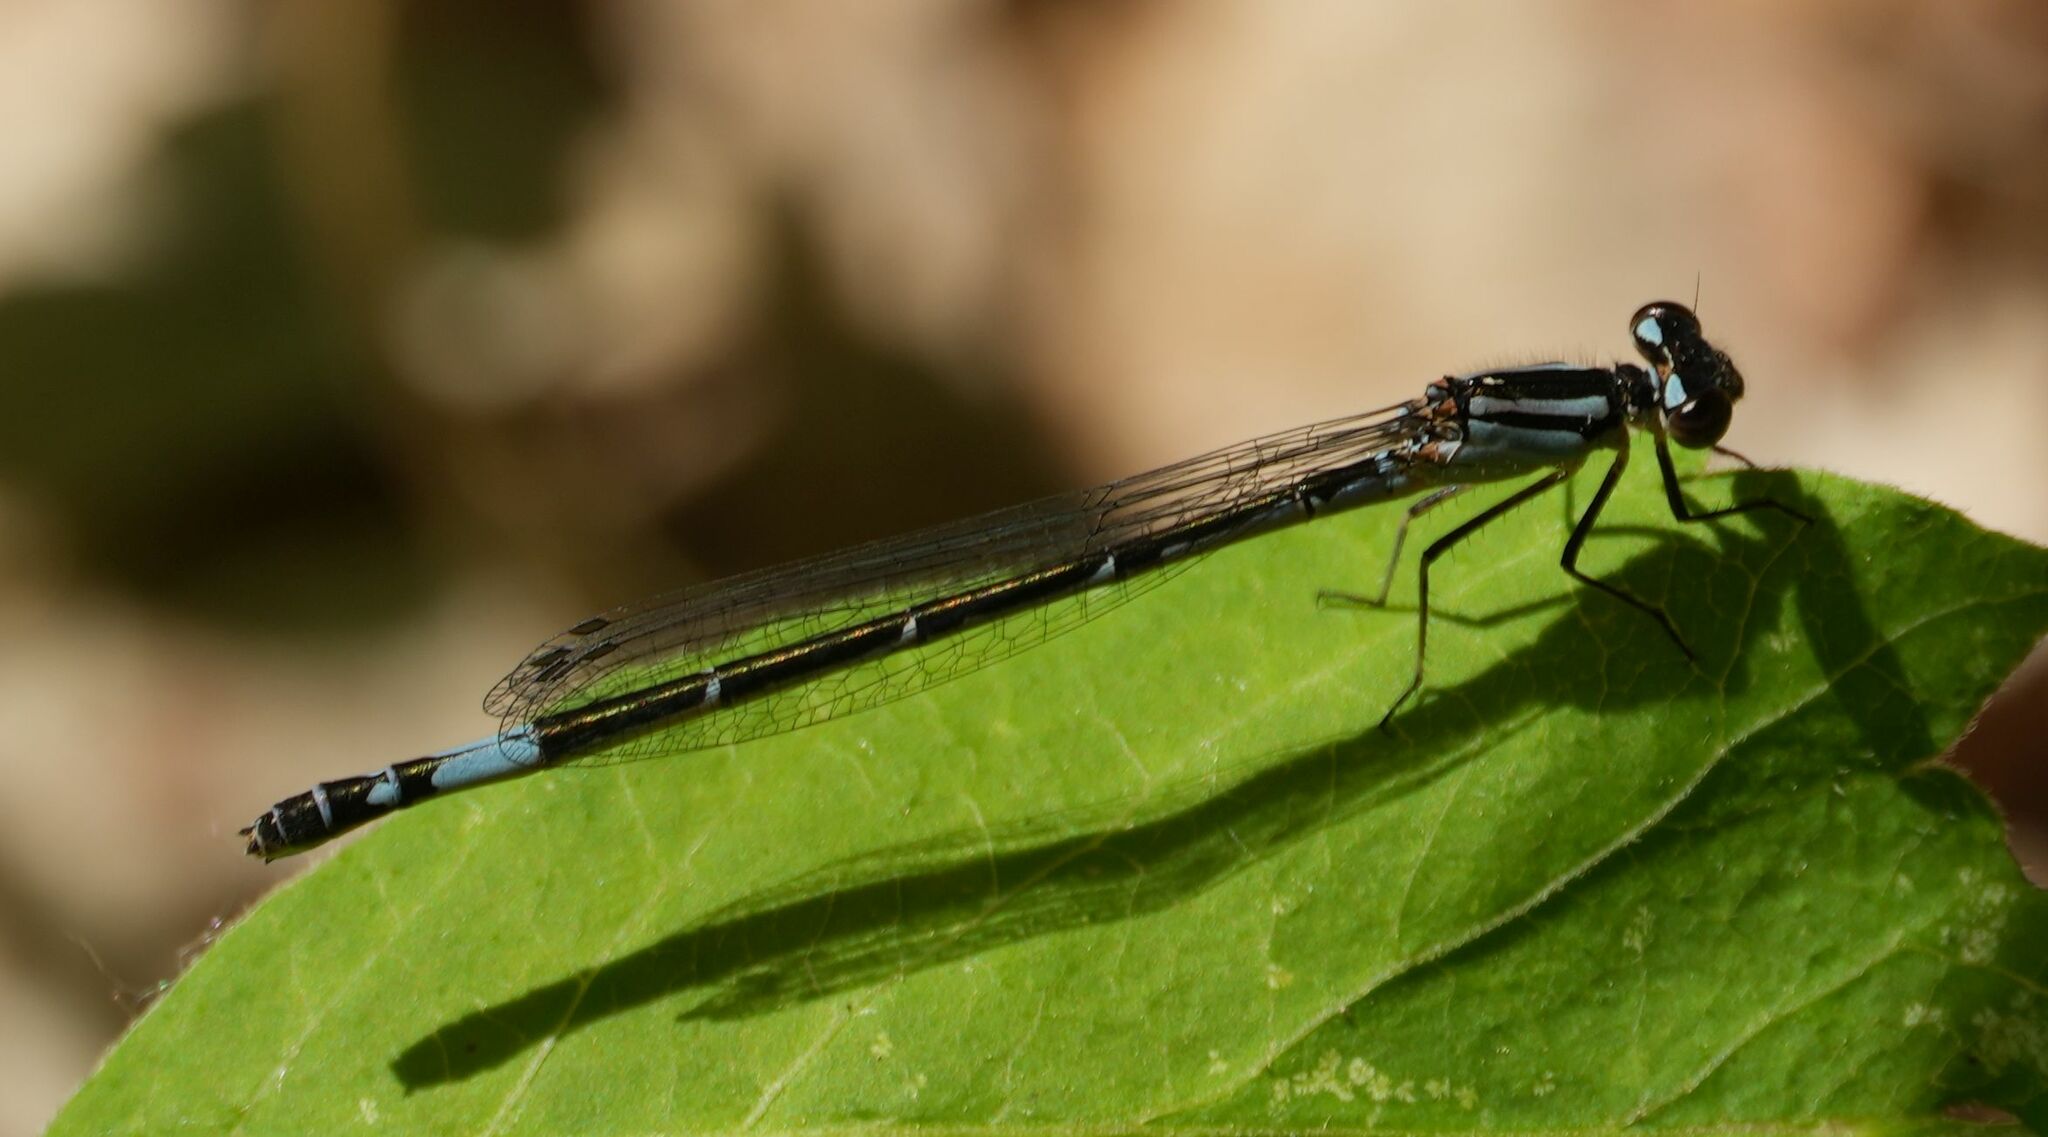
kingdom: Animalia
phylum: Arthropoda
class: Insecta
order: Odonata
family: Coenagrionidae
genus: Enallagma
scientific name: Enallagma aspersum
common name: Azure bluet
